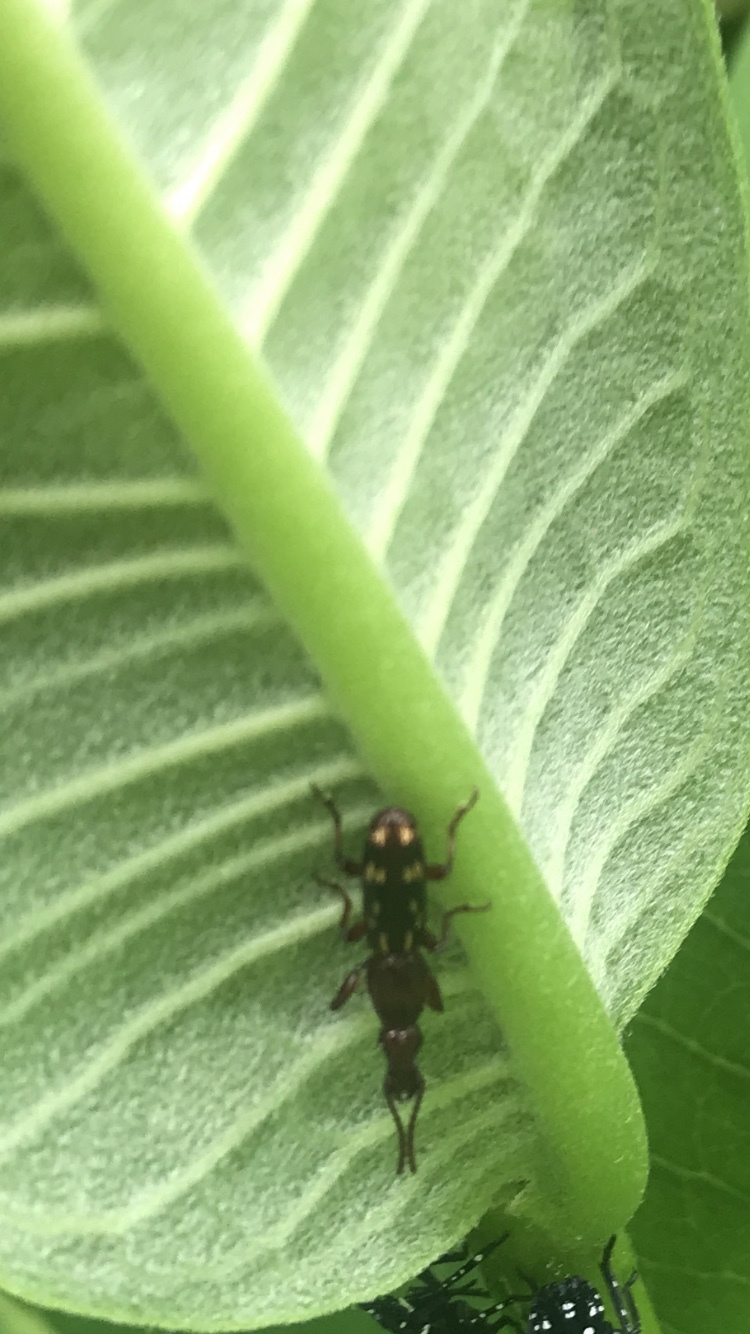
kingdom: Animalia
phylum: Arthropoda
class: Insecta
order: Coleoptera
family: Brentidae
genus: Arrenodes
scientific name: Arrenodes minutus
